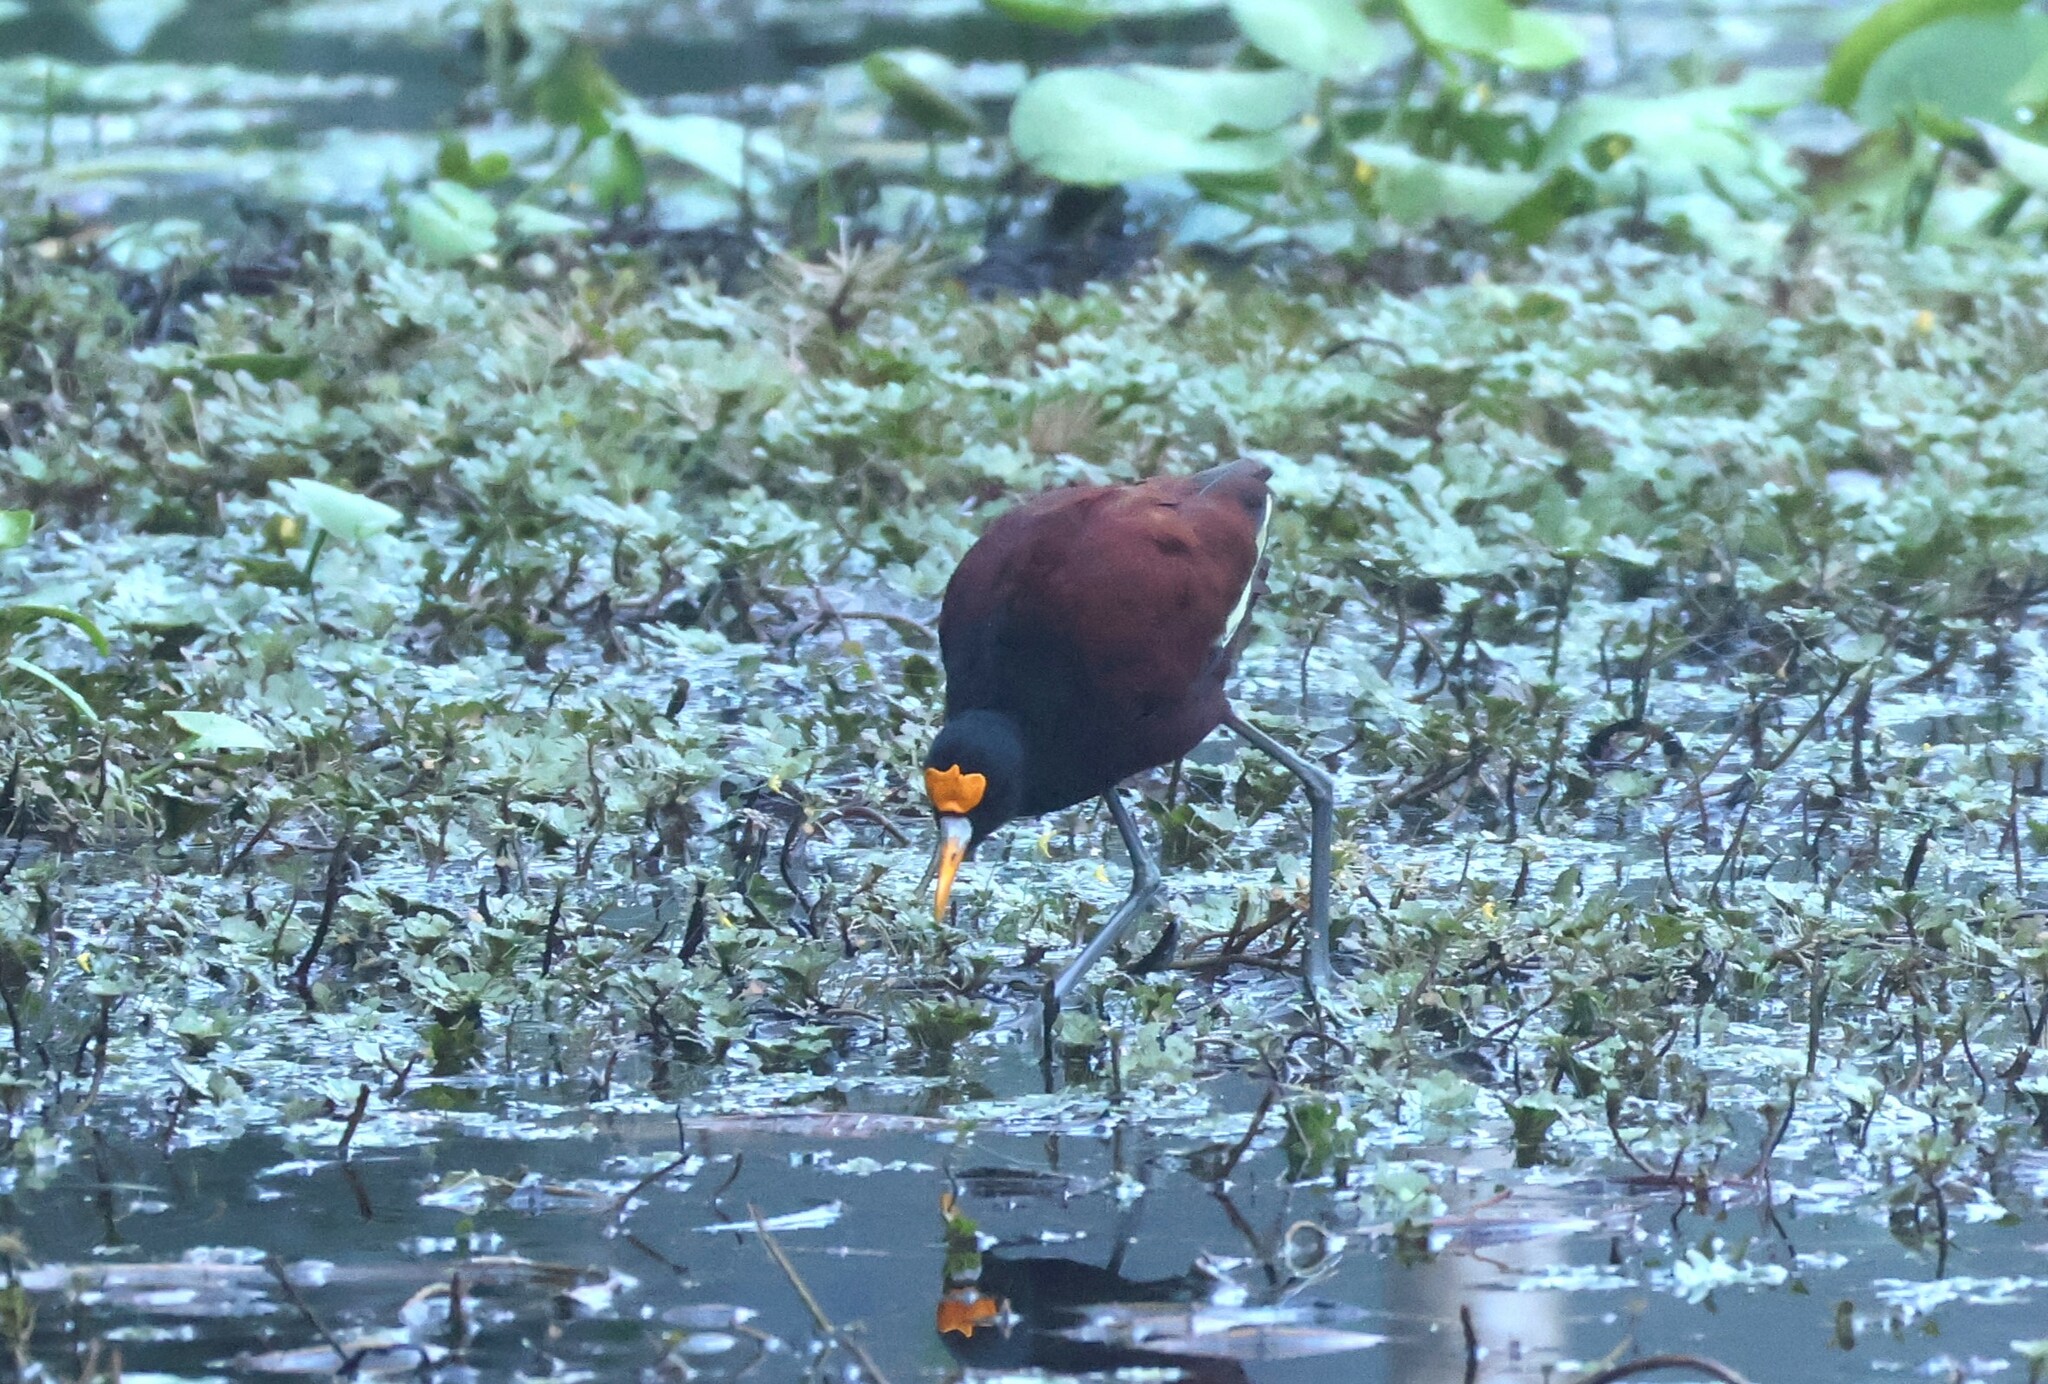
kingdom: Animalia
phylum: Chordata
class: Aves
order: Charadriiformes
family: Jacanidae
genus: Jacana
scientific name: Jacana spinosa
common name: Northern jacana
